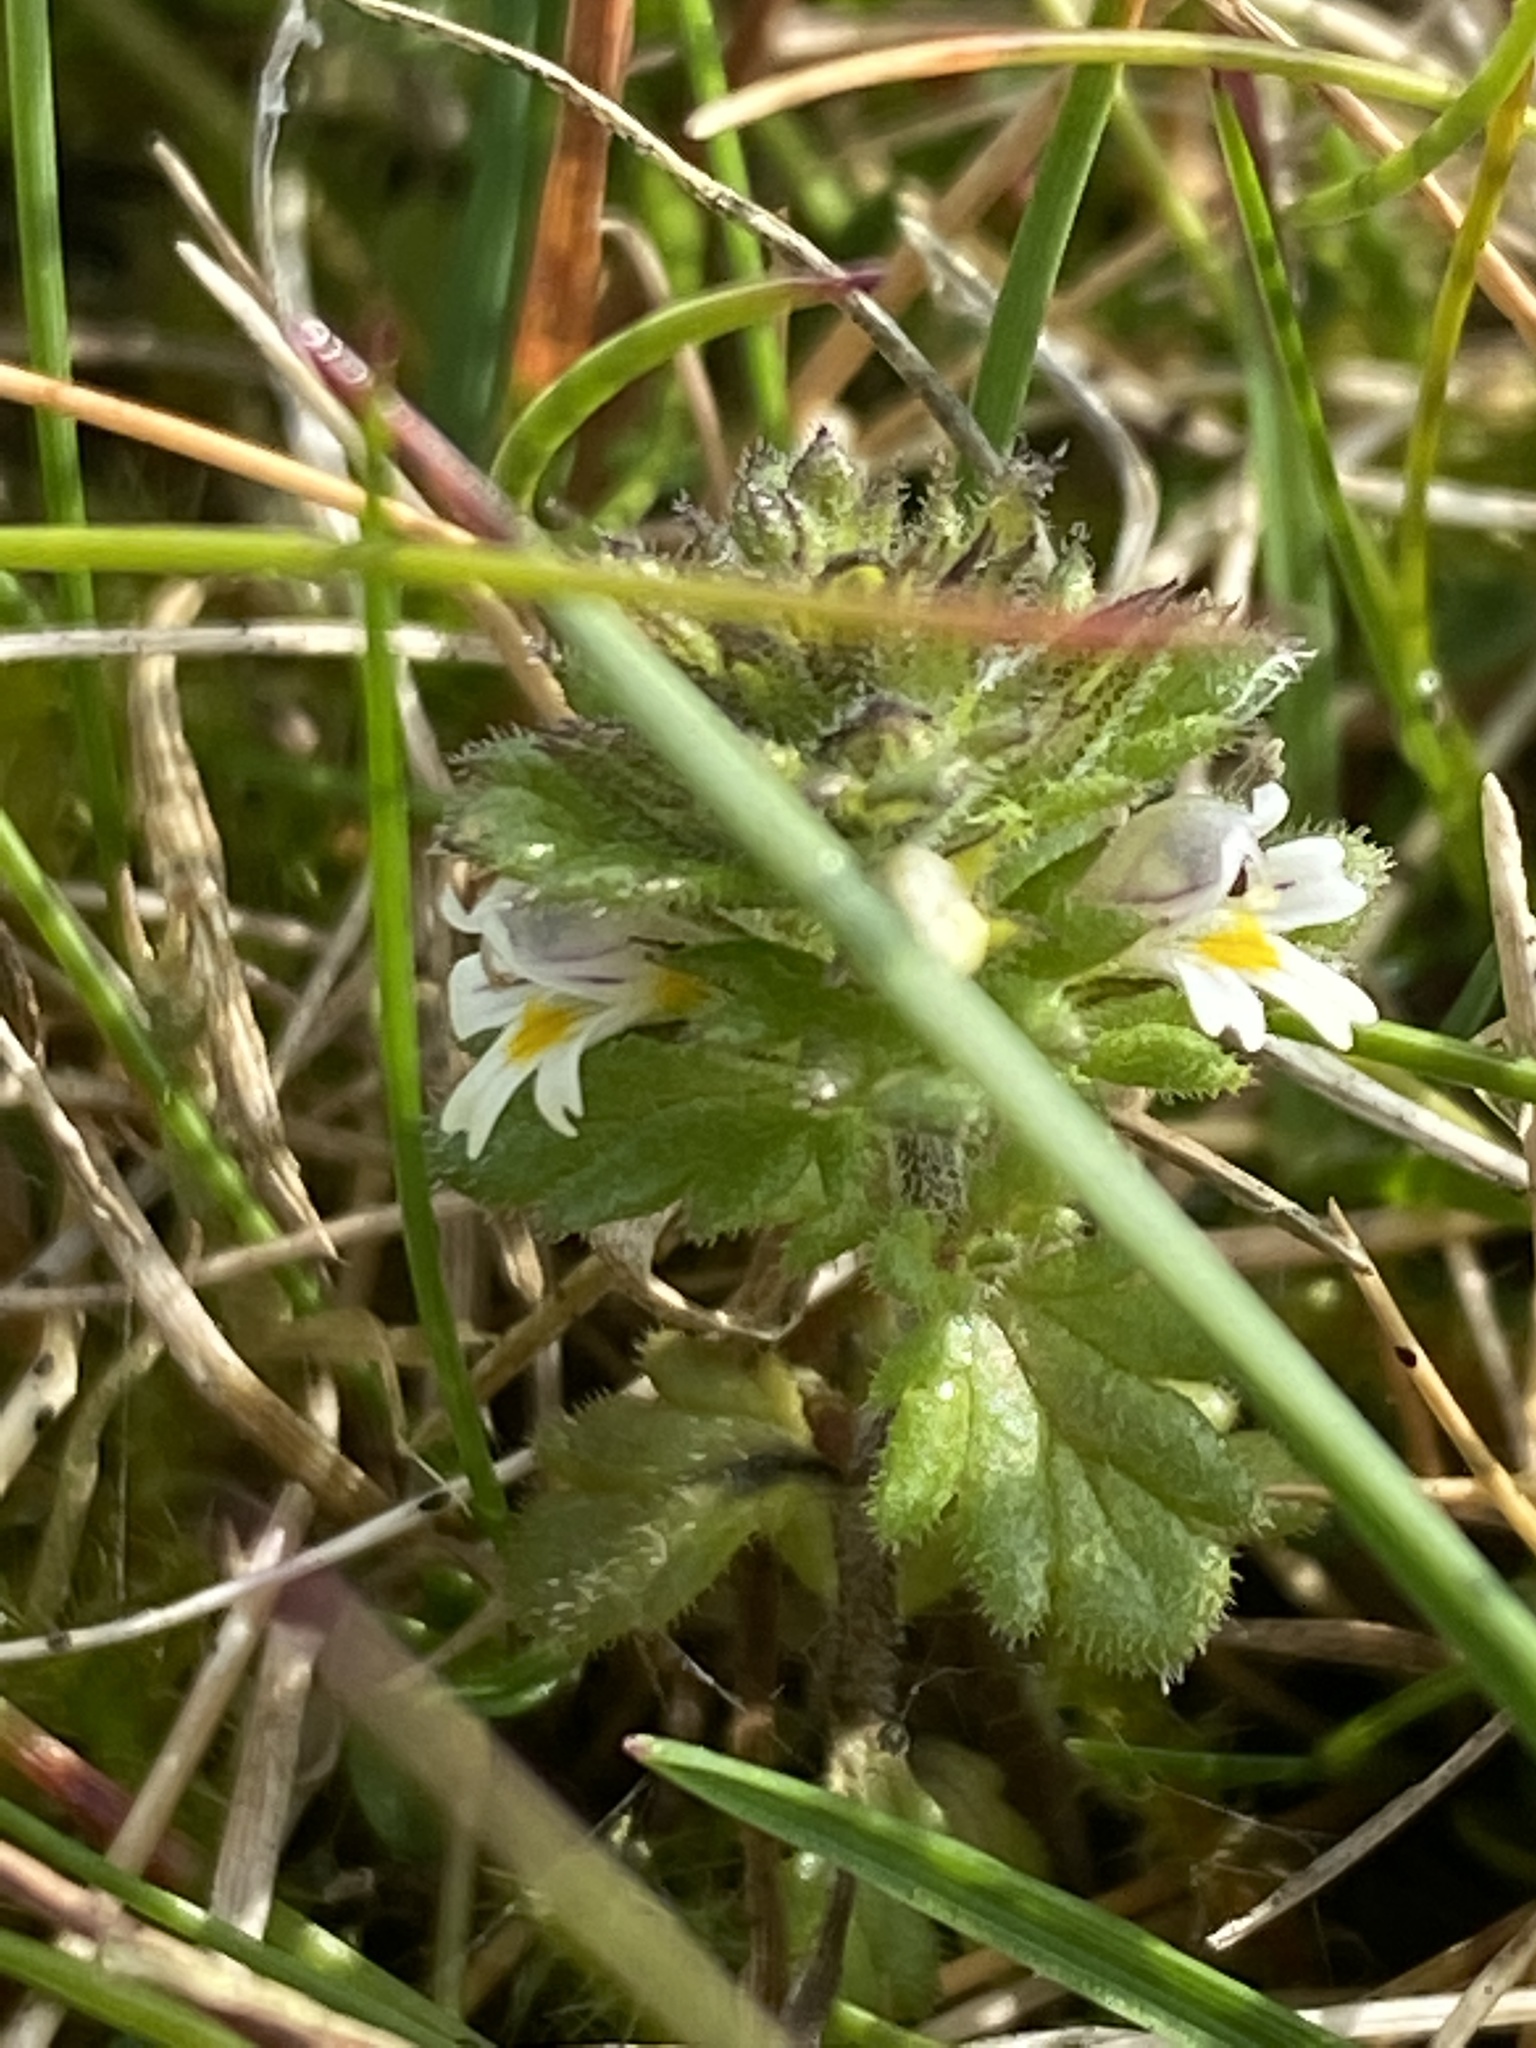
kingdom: Plantae
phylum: Tracheophyta
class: Magnoliopsida
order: Lamiales
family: Orobanchaceae
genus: Euphrasia
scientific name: Euphrasia frigida
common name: An eyebright
